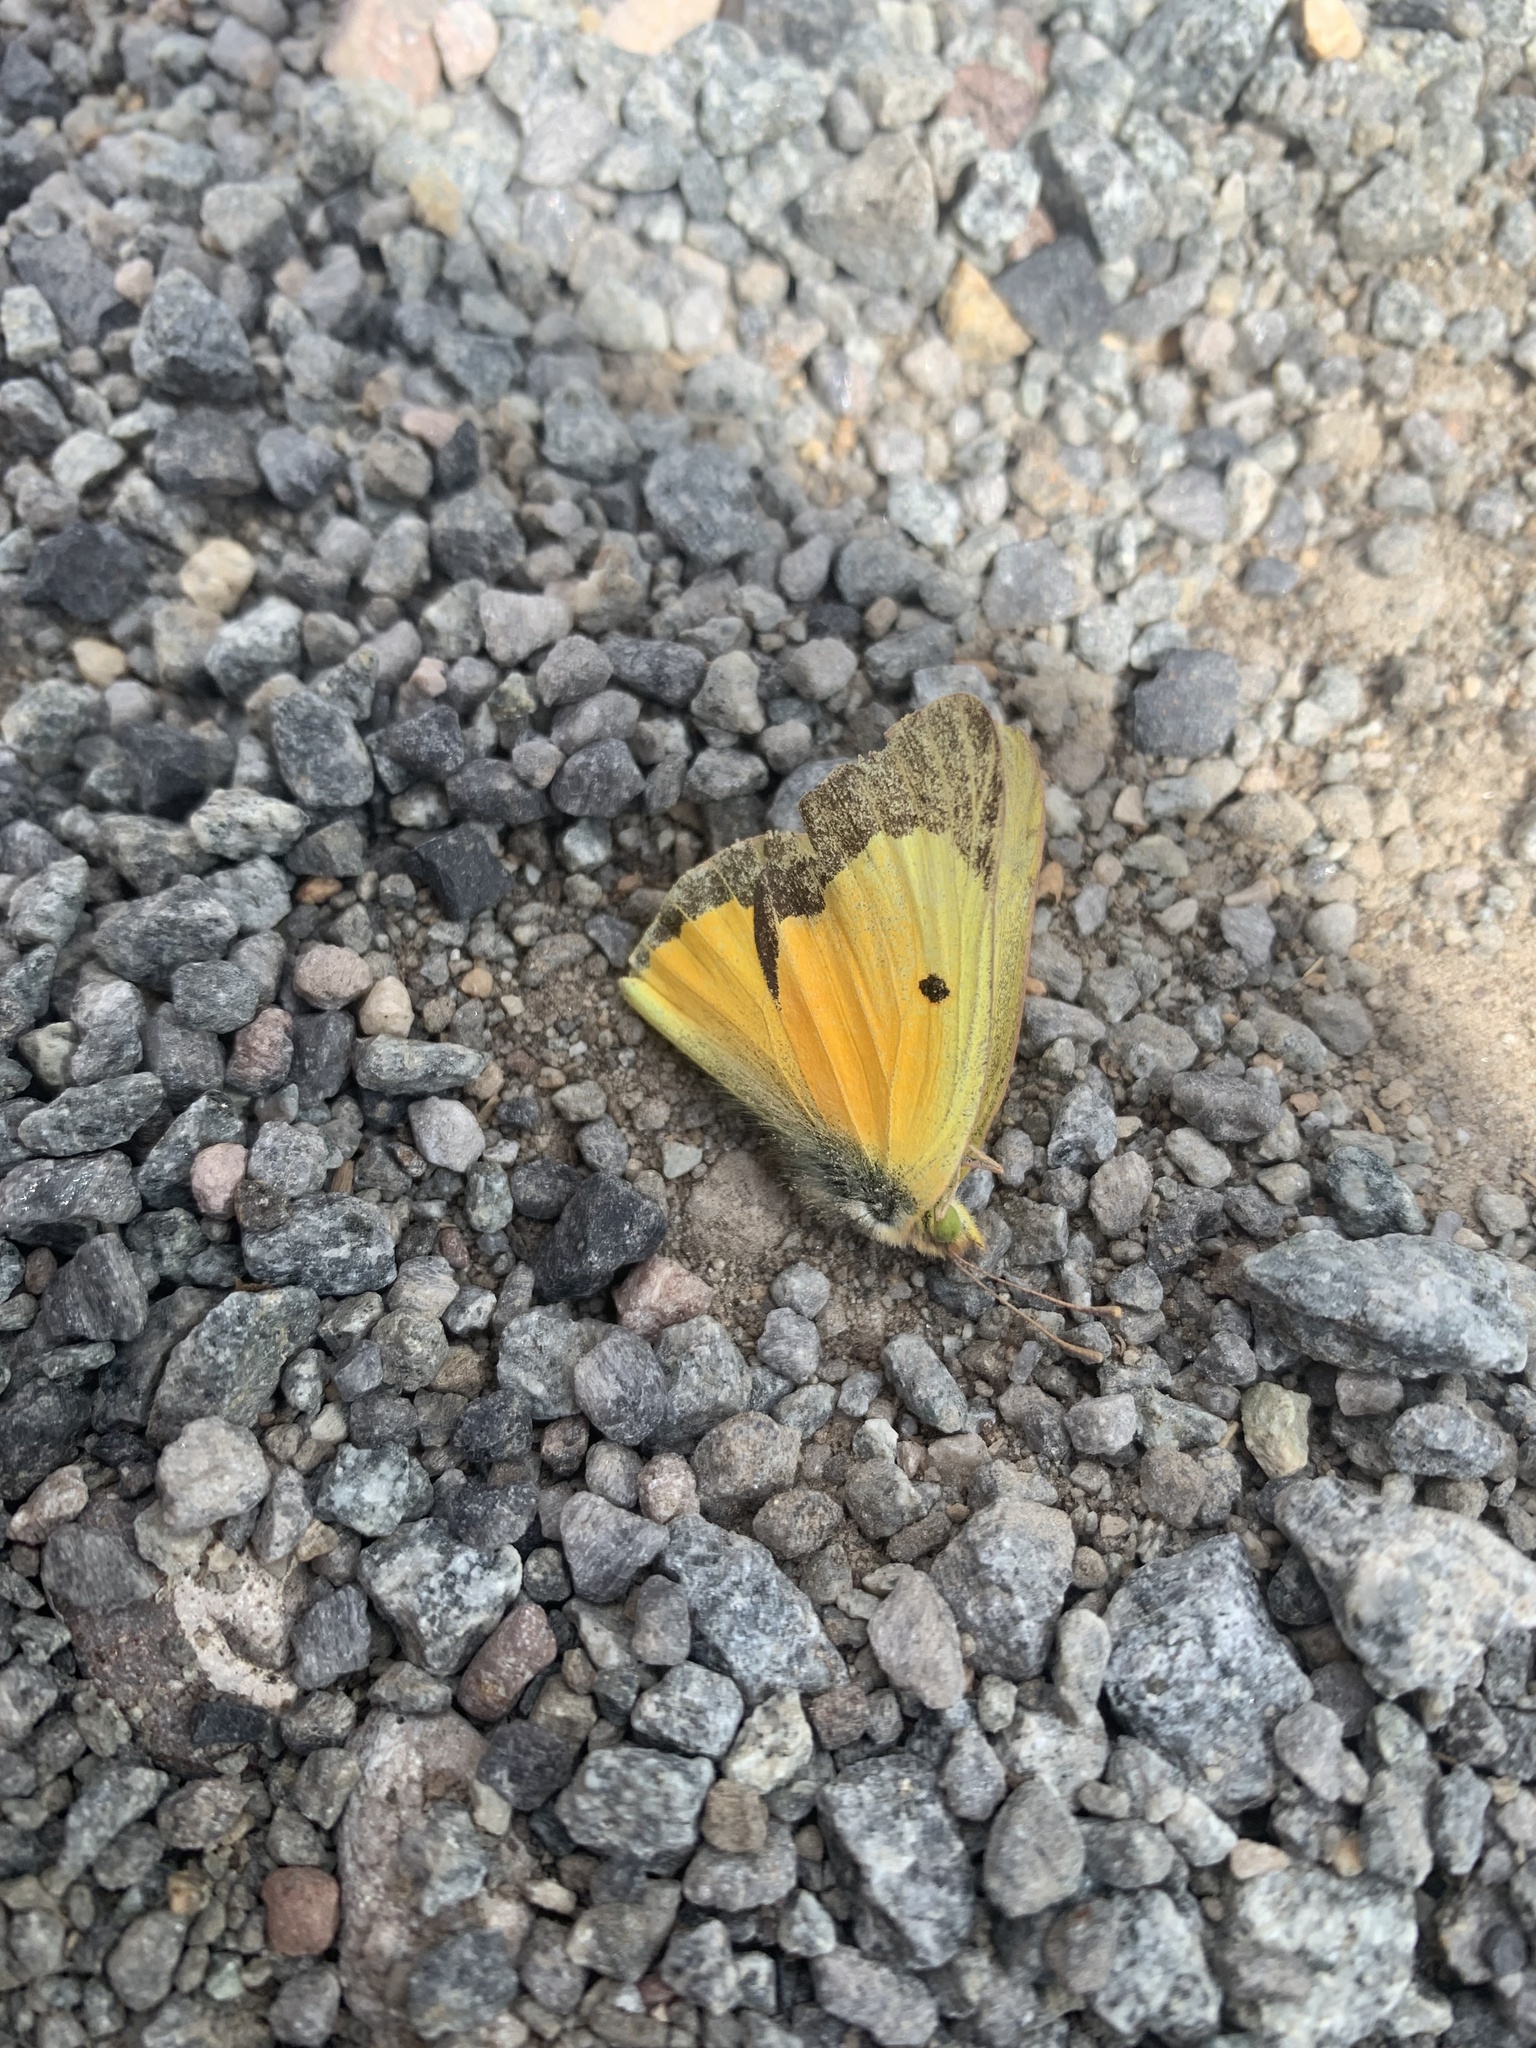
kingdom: Animalia
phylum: Arthropoda
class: Insecta
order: Lepidoptera
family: Pieridae
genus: Colias
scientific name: Colias eurytheme
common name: Alfalfa butterfly
